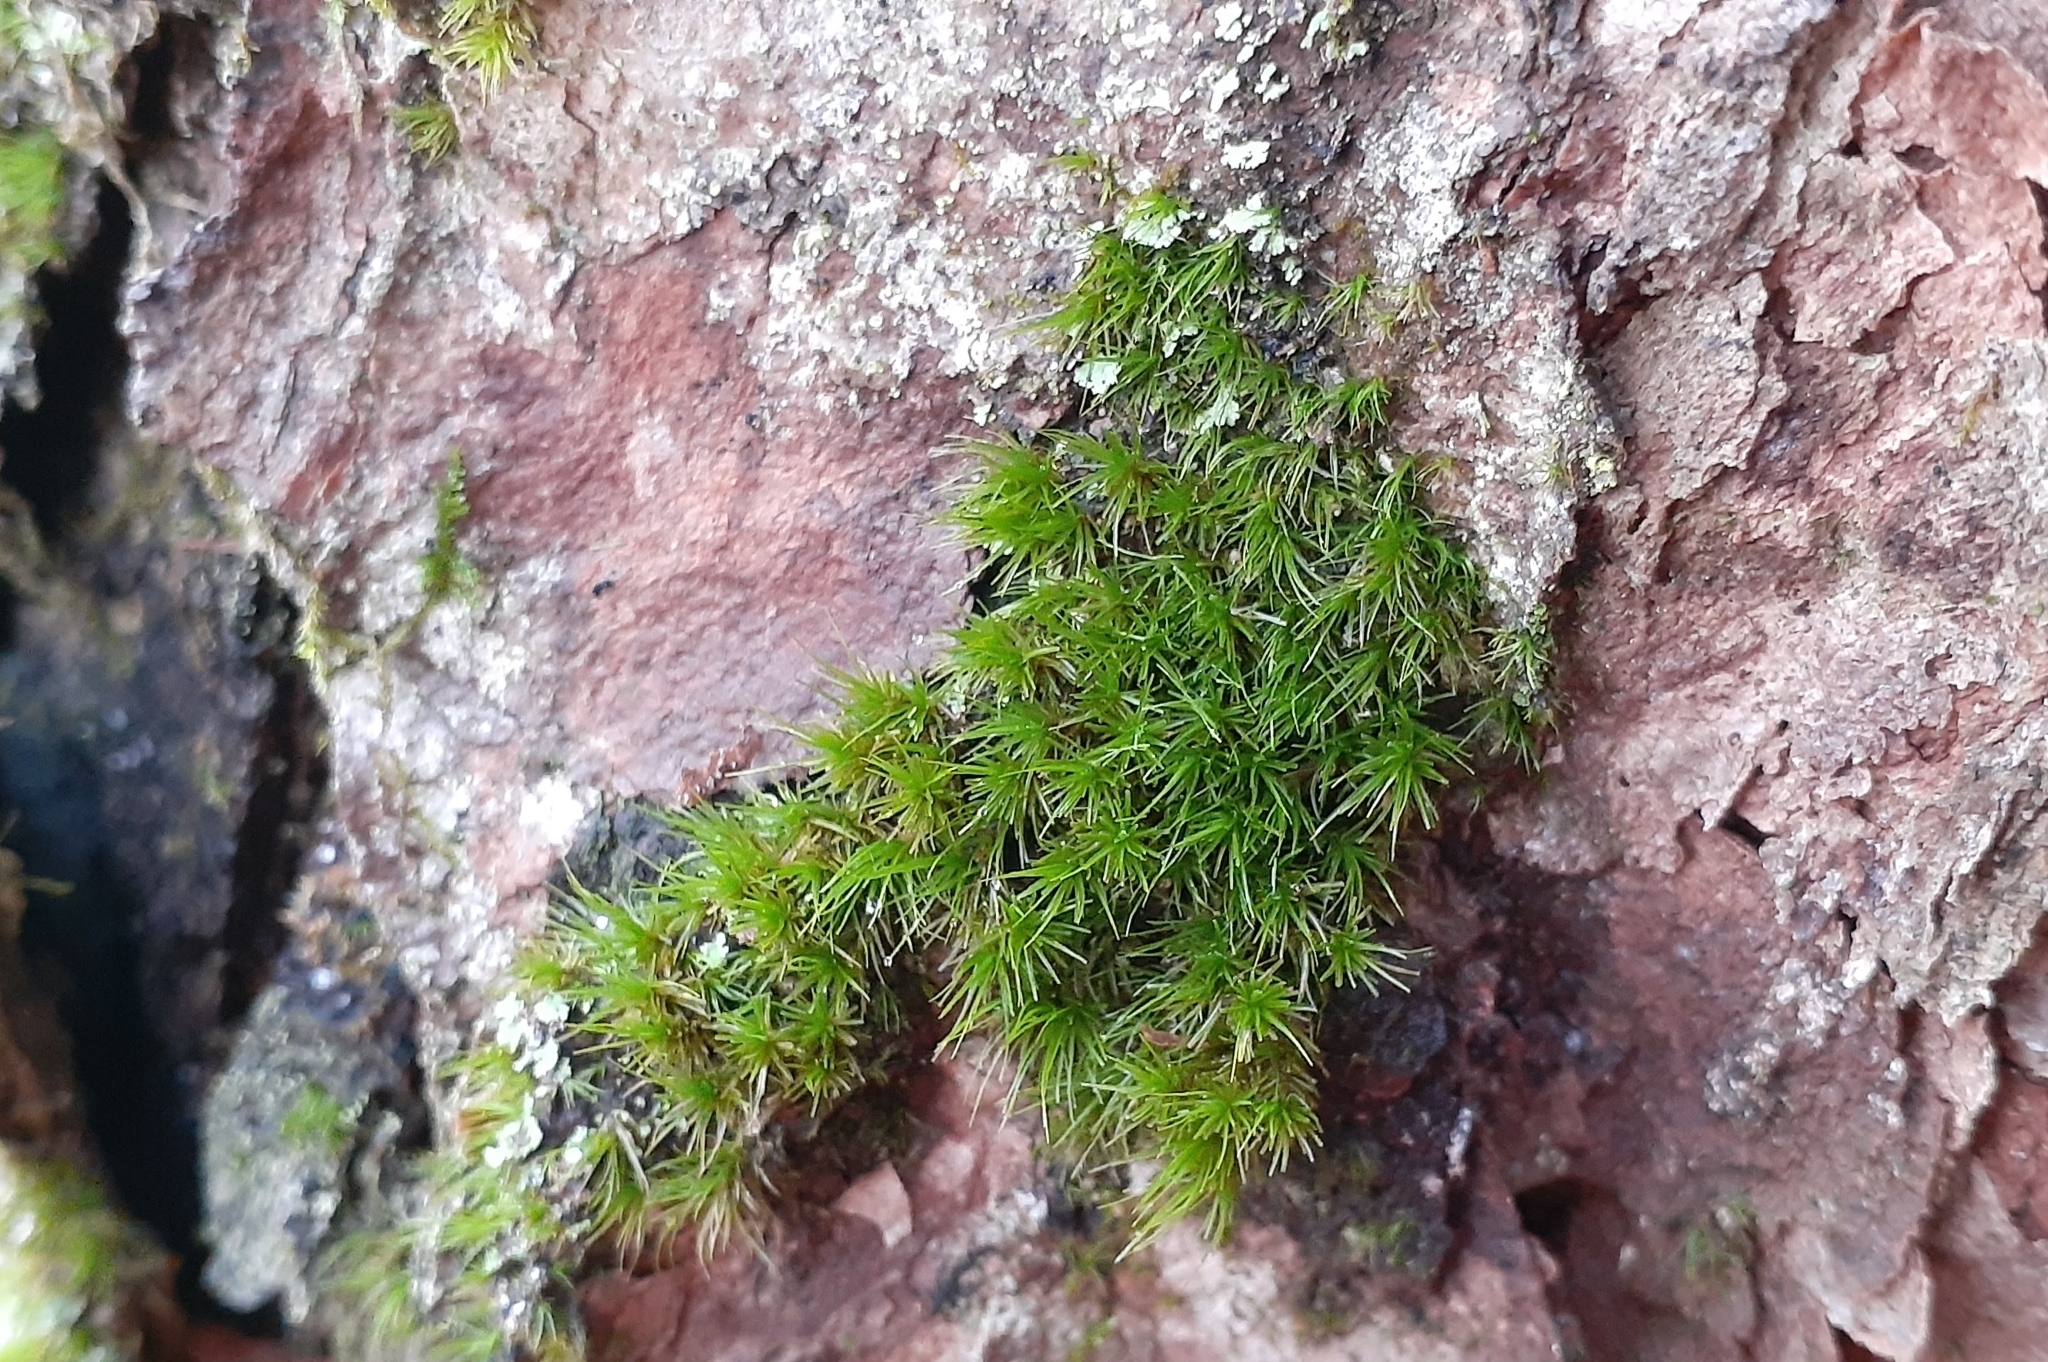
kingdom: Plantae
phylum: Bryophyta
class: Bryopsida
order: Dicranales
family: Dicranaceae
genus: Dicranum
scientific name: Dicranum viride
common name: Green broom moss
